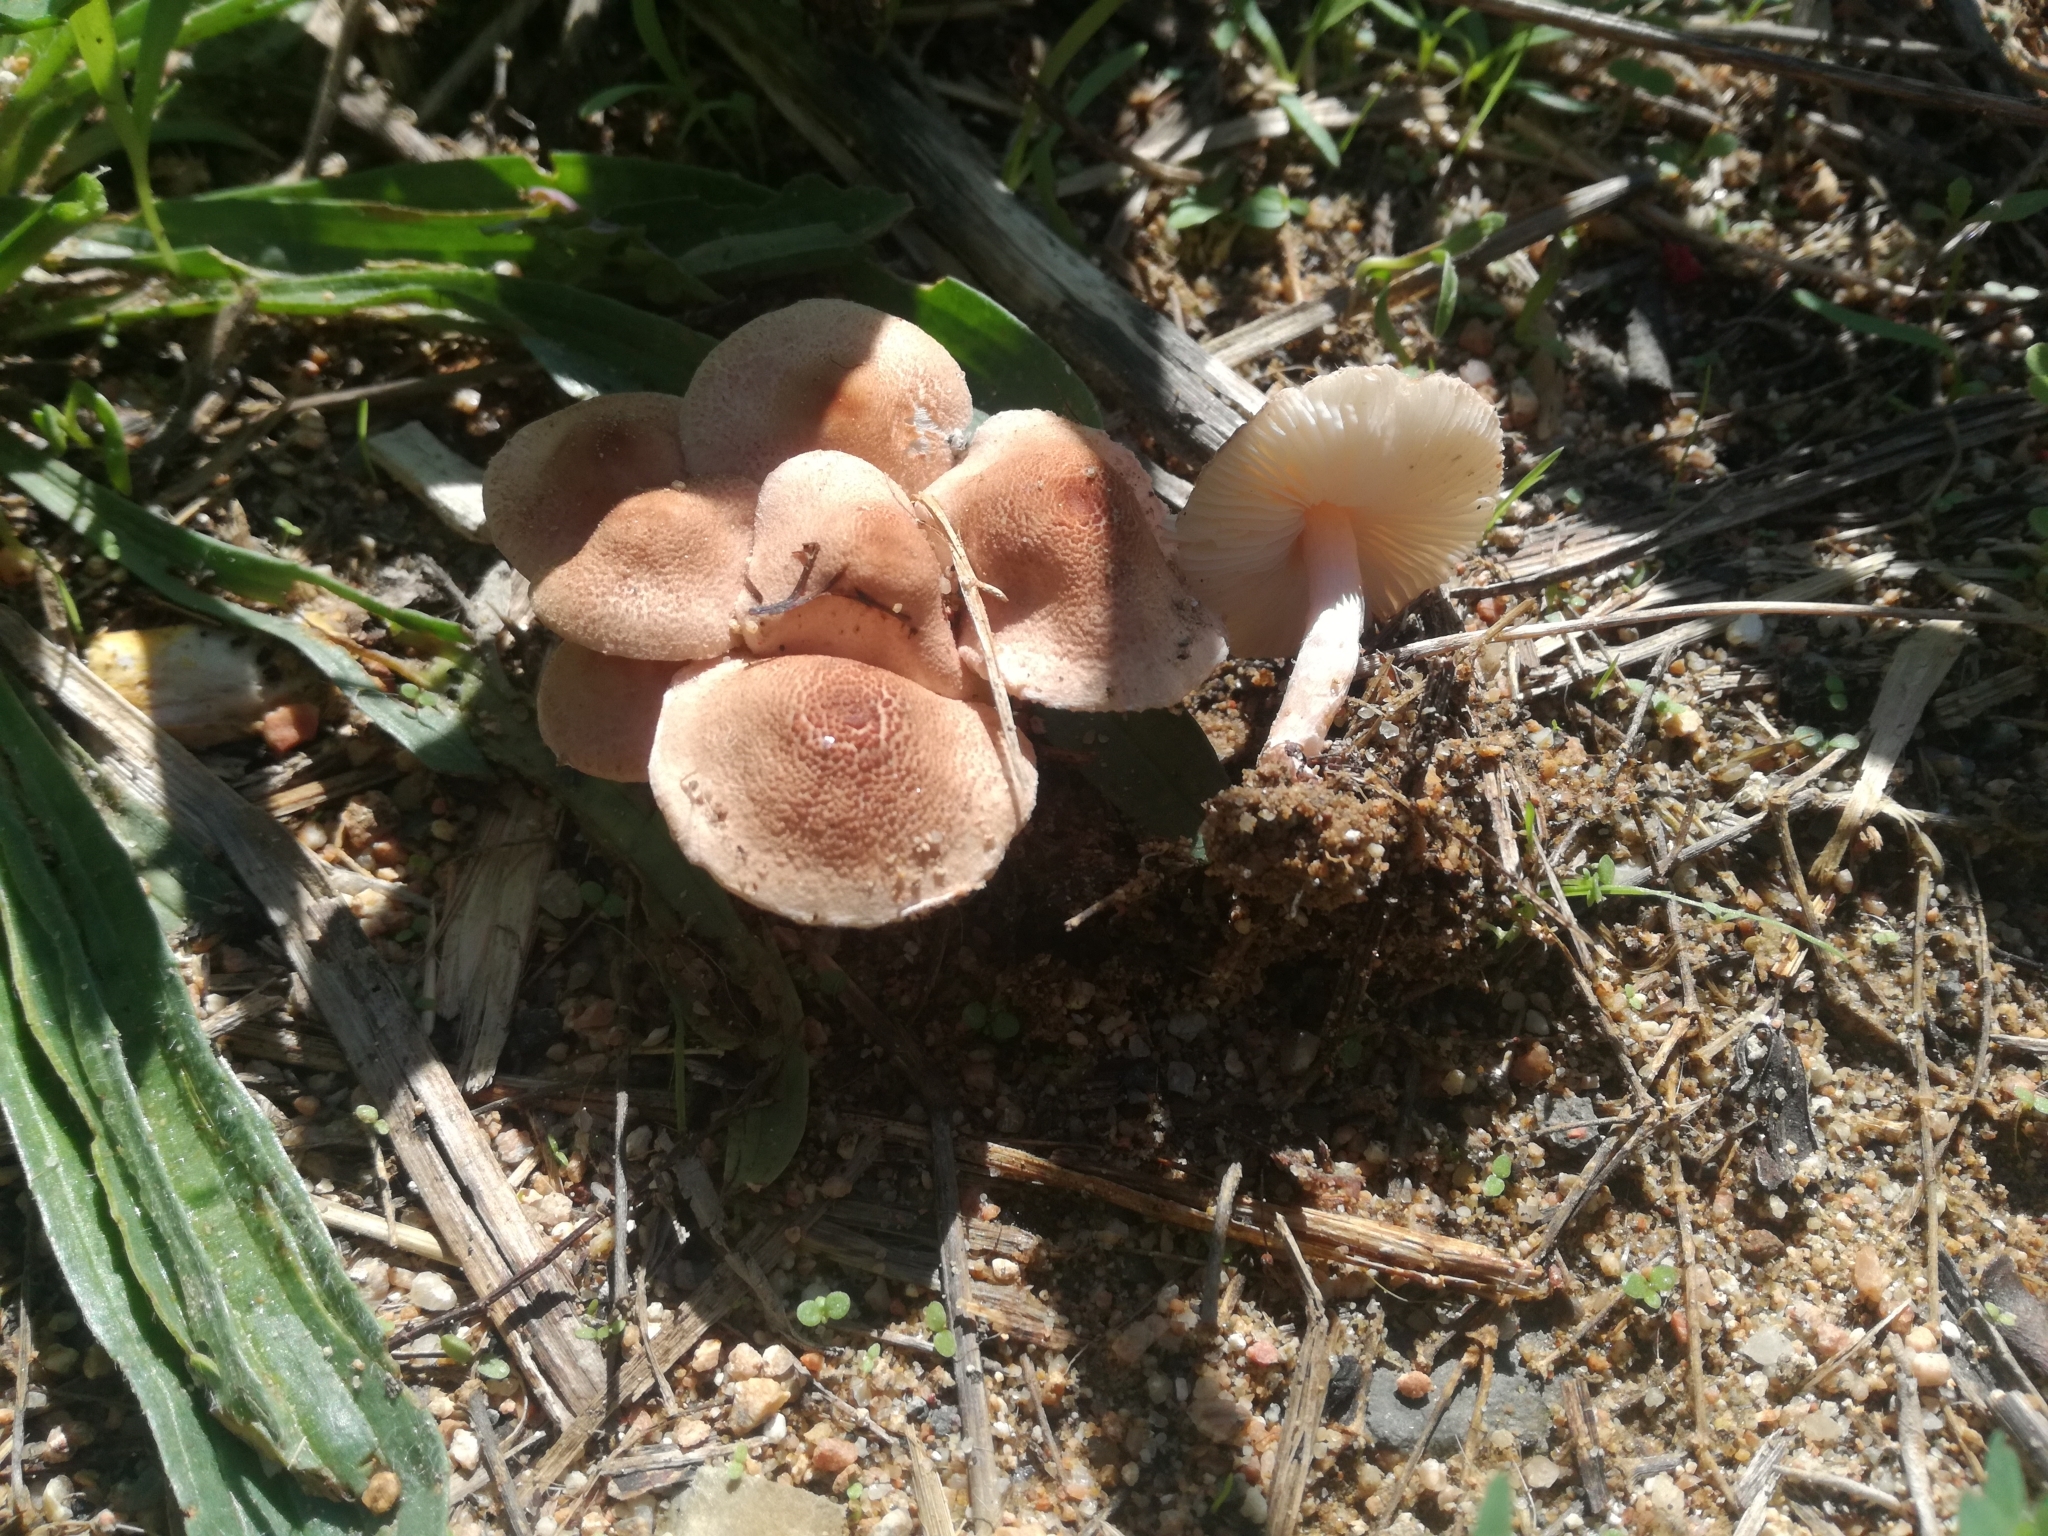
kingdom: Fungi
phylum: Basidiomycota
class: Agaricomycetes
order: Agaricales
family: Agaricaceae
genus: Lepiota
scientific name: Lepiota subincarnata
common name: Fatal dapperling
